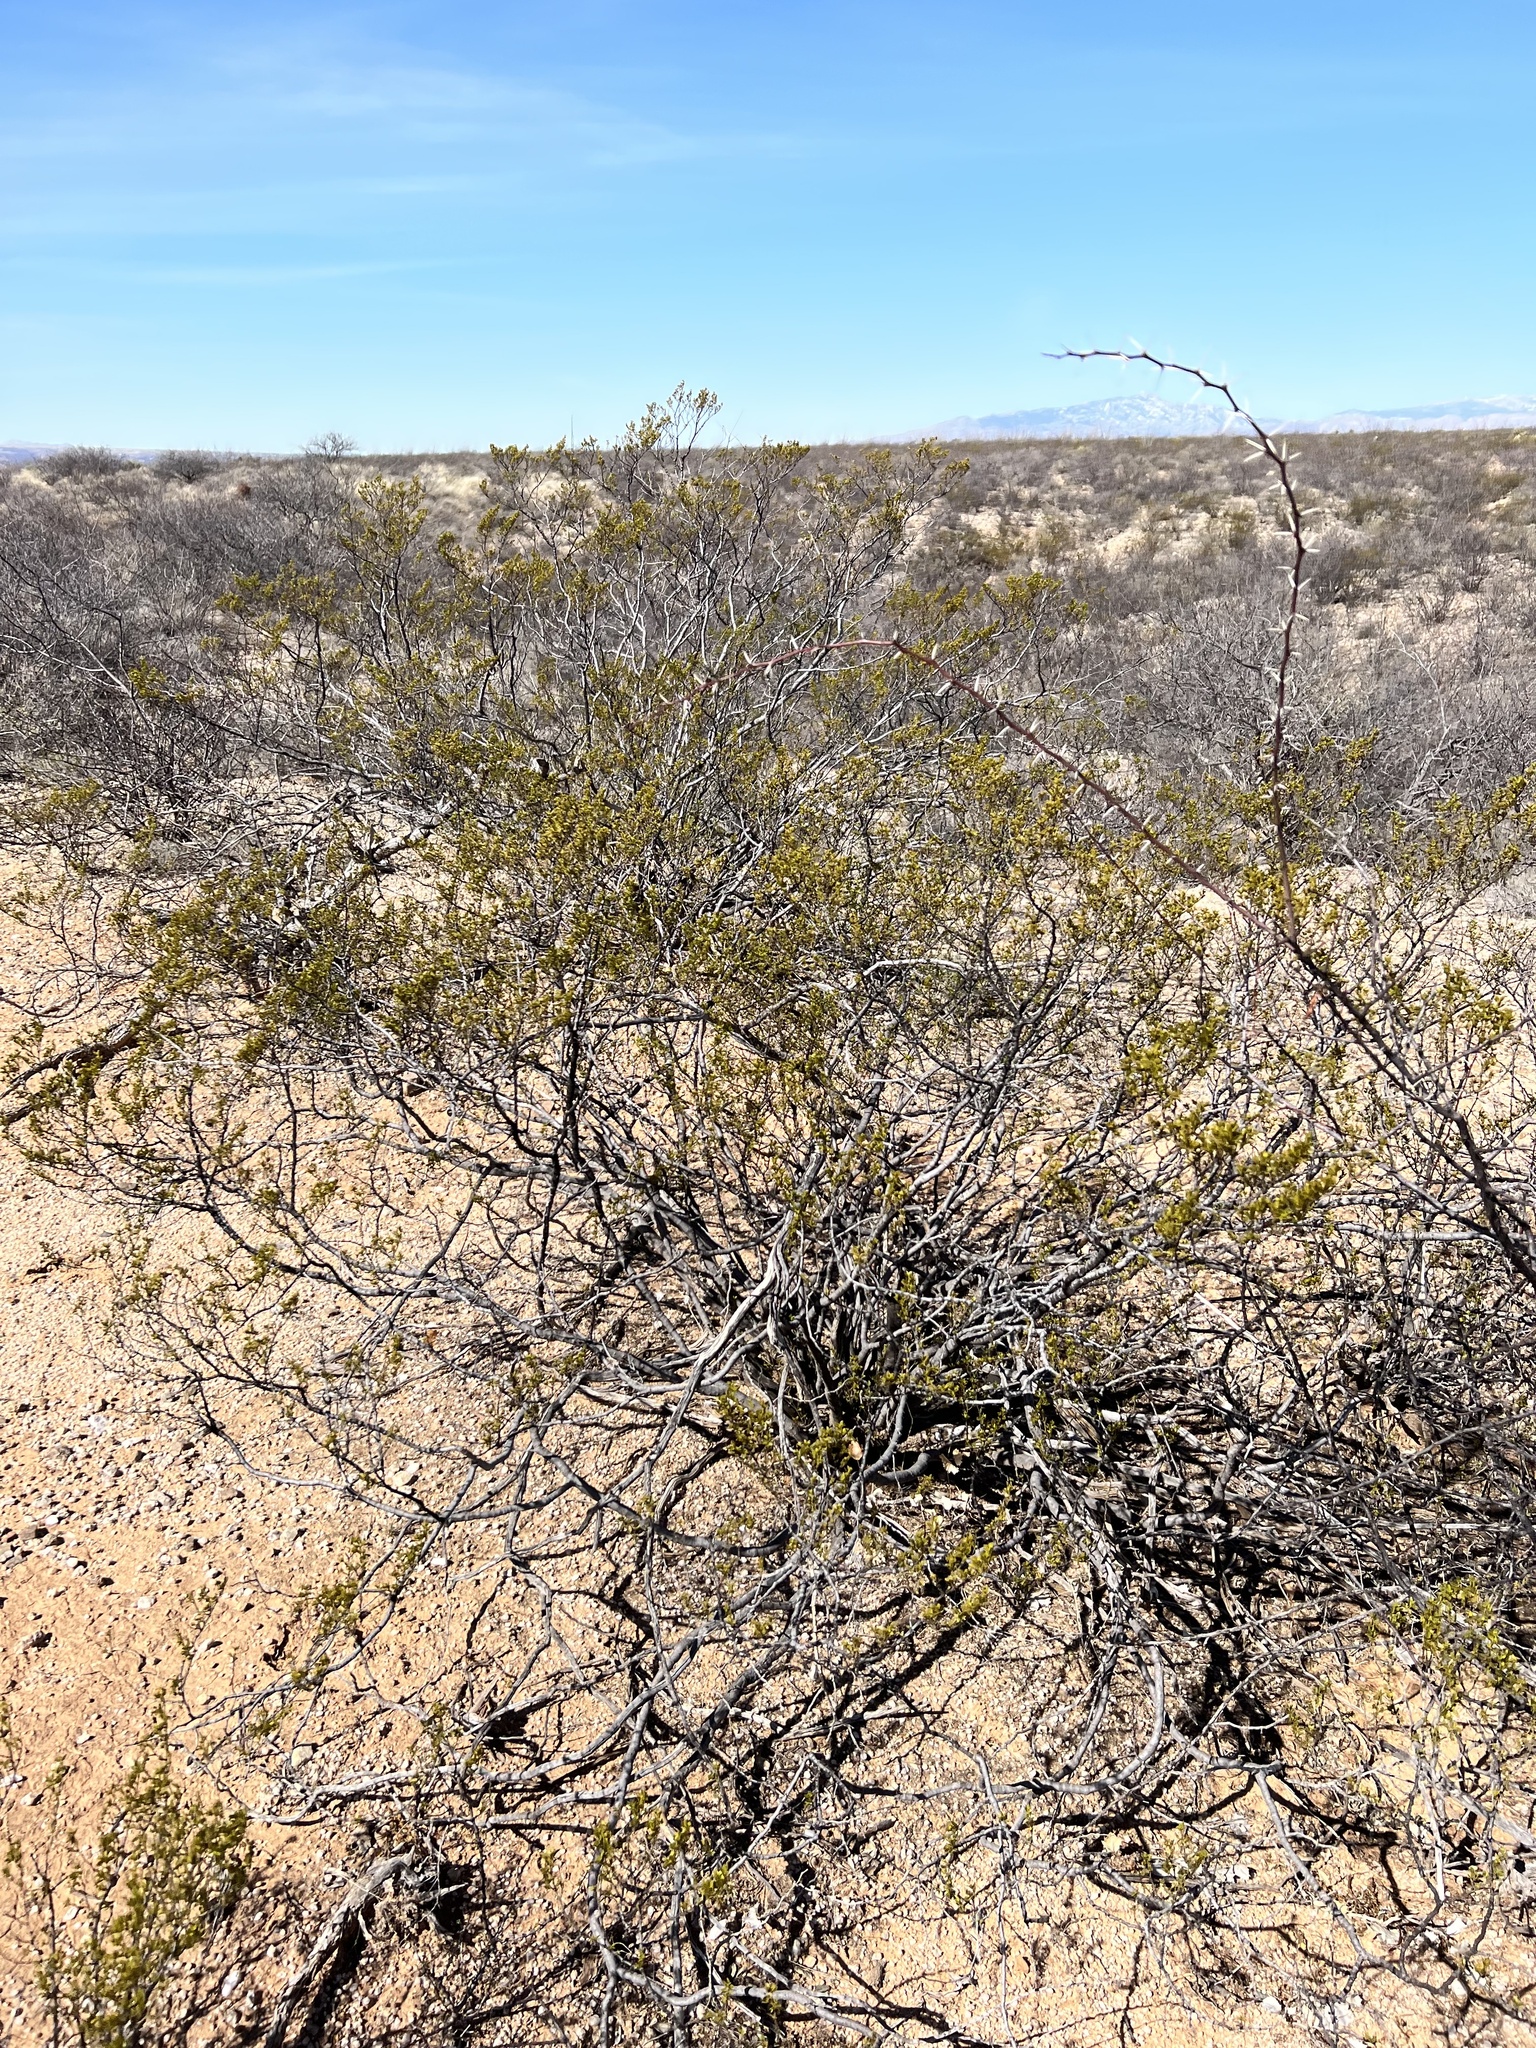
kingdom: Plantae
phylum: Tracheophyta
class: Magnoliopsida
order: Zygophyllales
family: Zygophyllaceae
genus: Larrea
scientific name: Larrea tridentata
